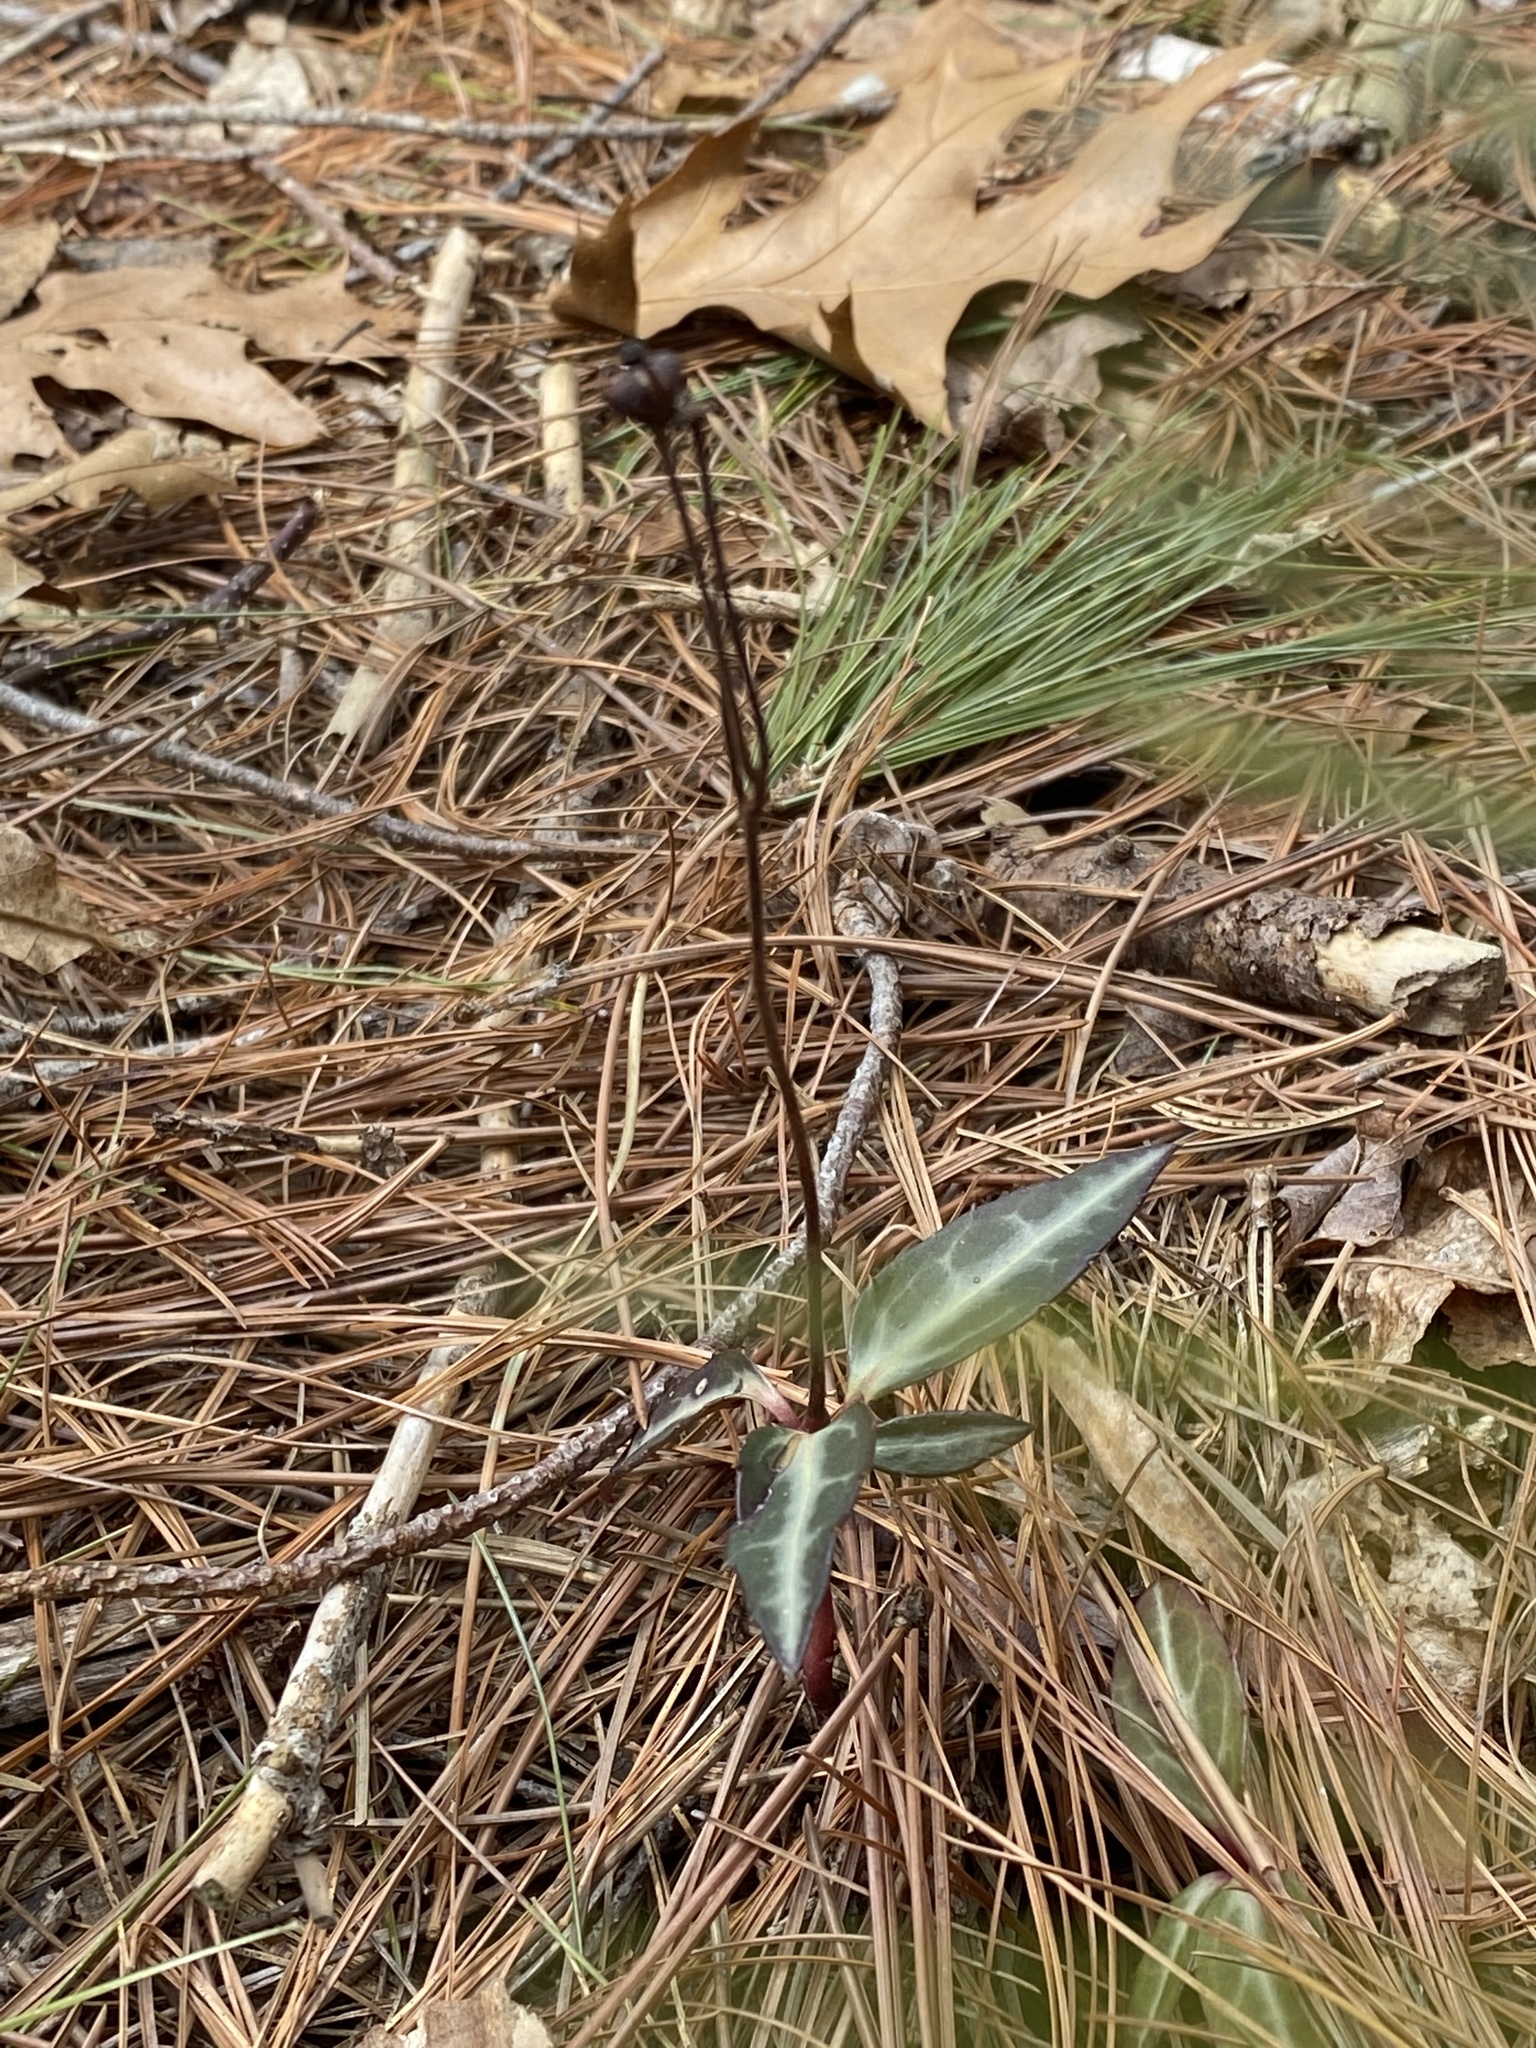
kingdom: Plantae
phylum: Tracheophyta
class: Magnoliopsida
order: Ericales
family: Ericaceae
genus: Chimaphila
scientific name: Chimaphila maculata
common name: Spotted pipsissewa
